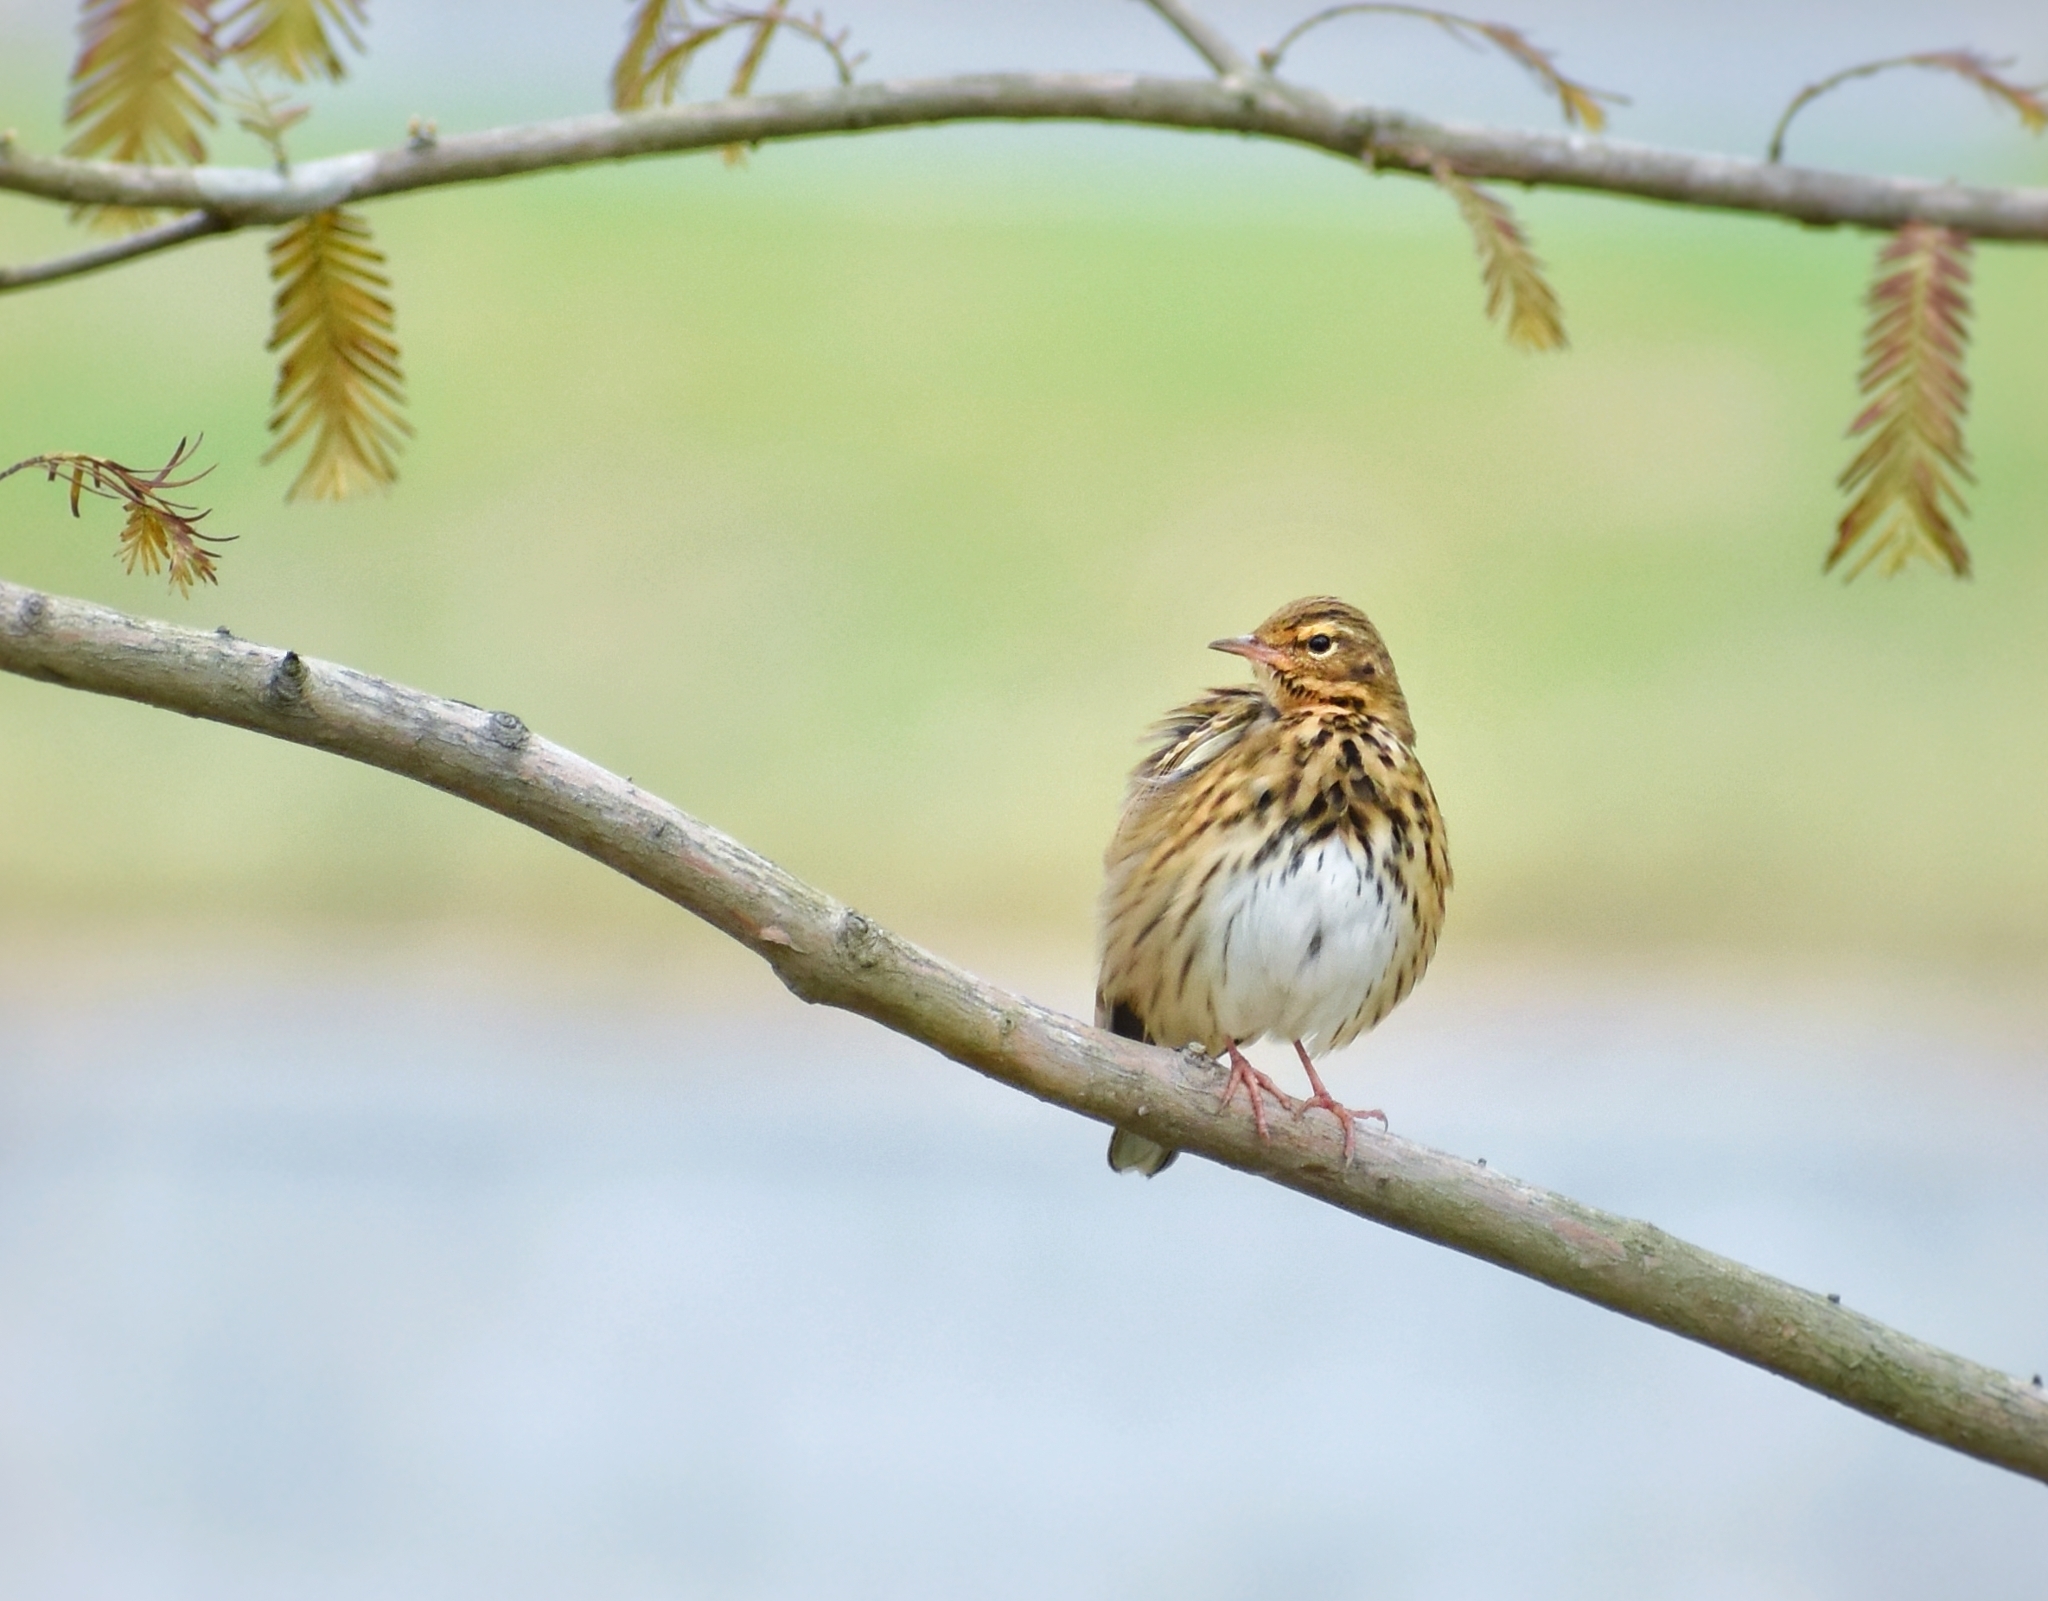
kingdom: Animalia
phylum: Chordata
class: Aves
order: Passeriformes
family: Motacillidae
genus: Anthus
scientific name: Anthus hodgsoni
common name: Olive-backed pipit
